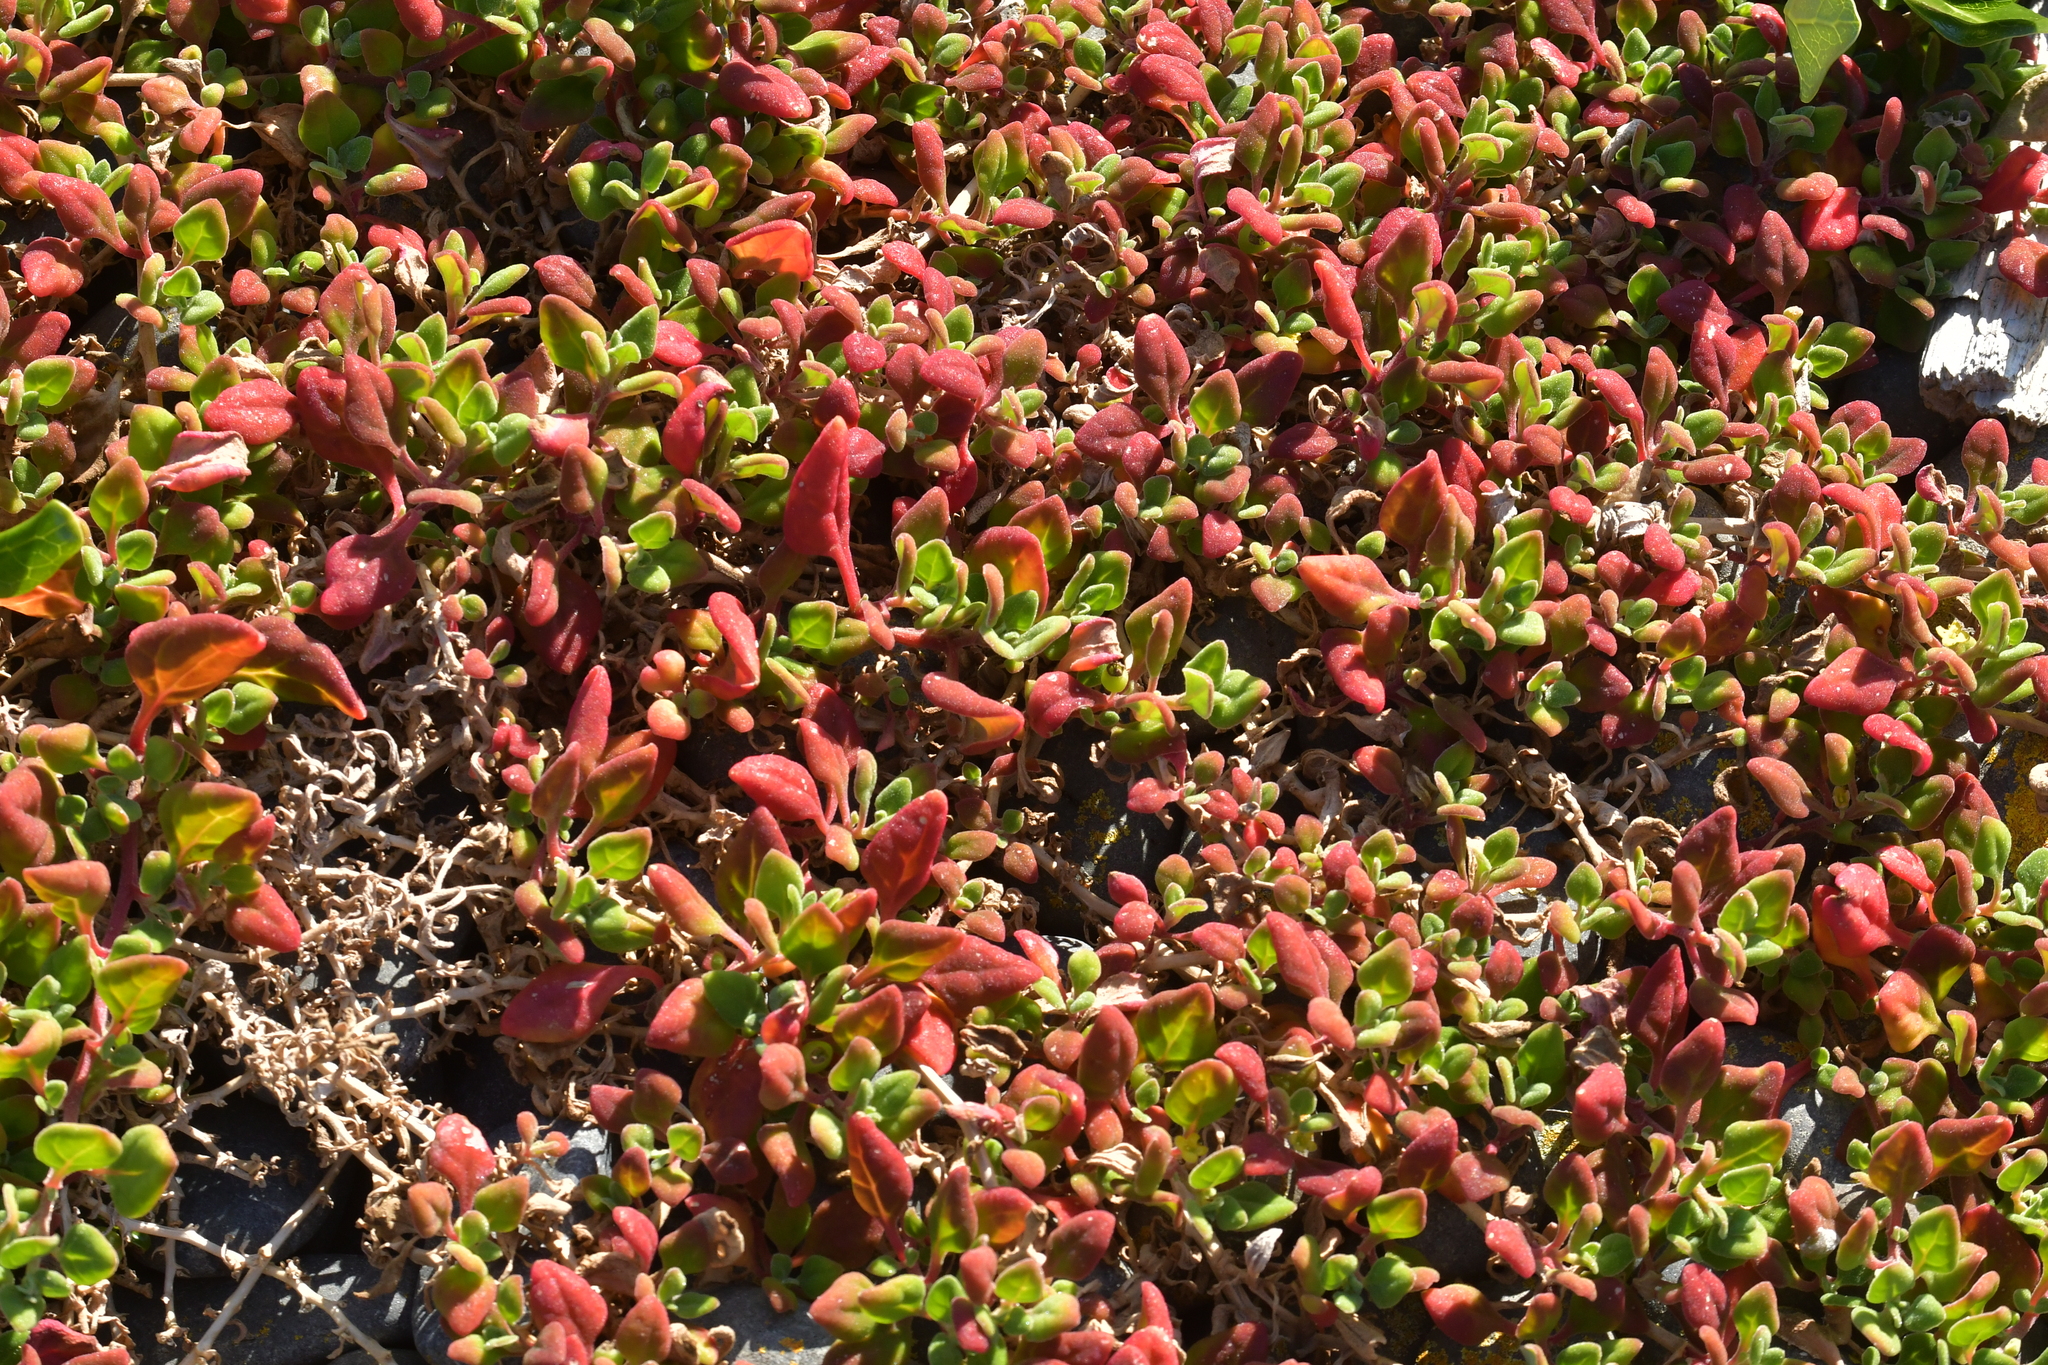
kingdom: Plantae
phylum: Tracheophyta
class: Magnoliopsida
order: Caryophyllales
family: Aizoaceae
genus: Tetragonia
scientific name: Tetragonia implexicoma
